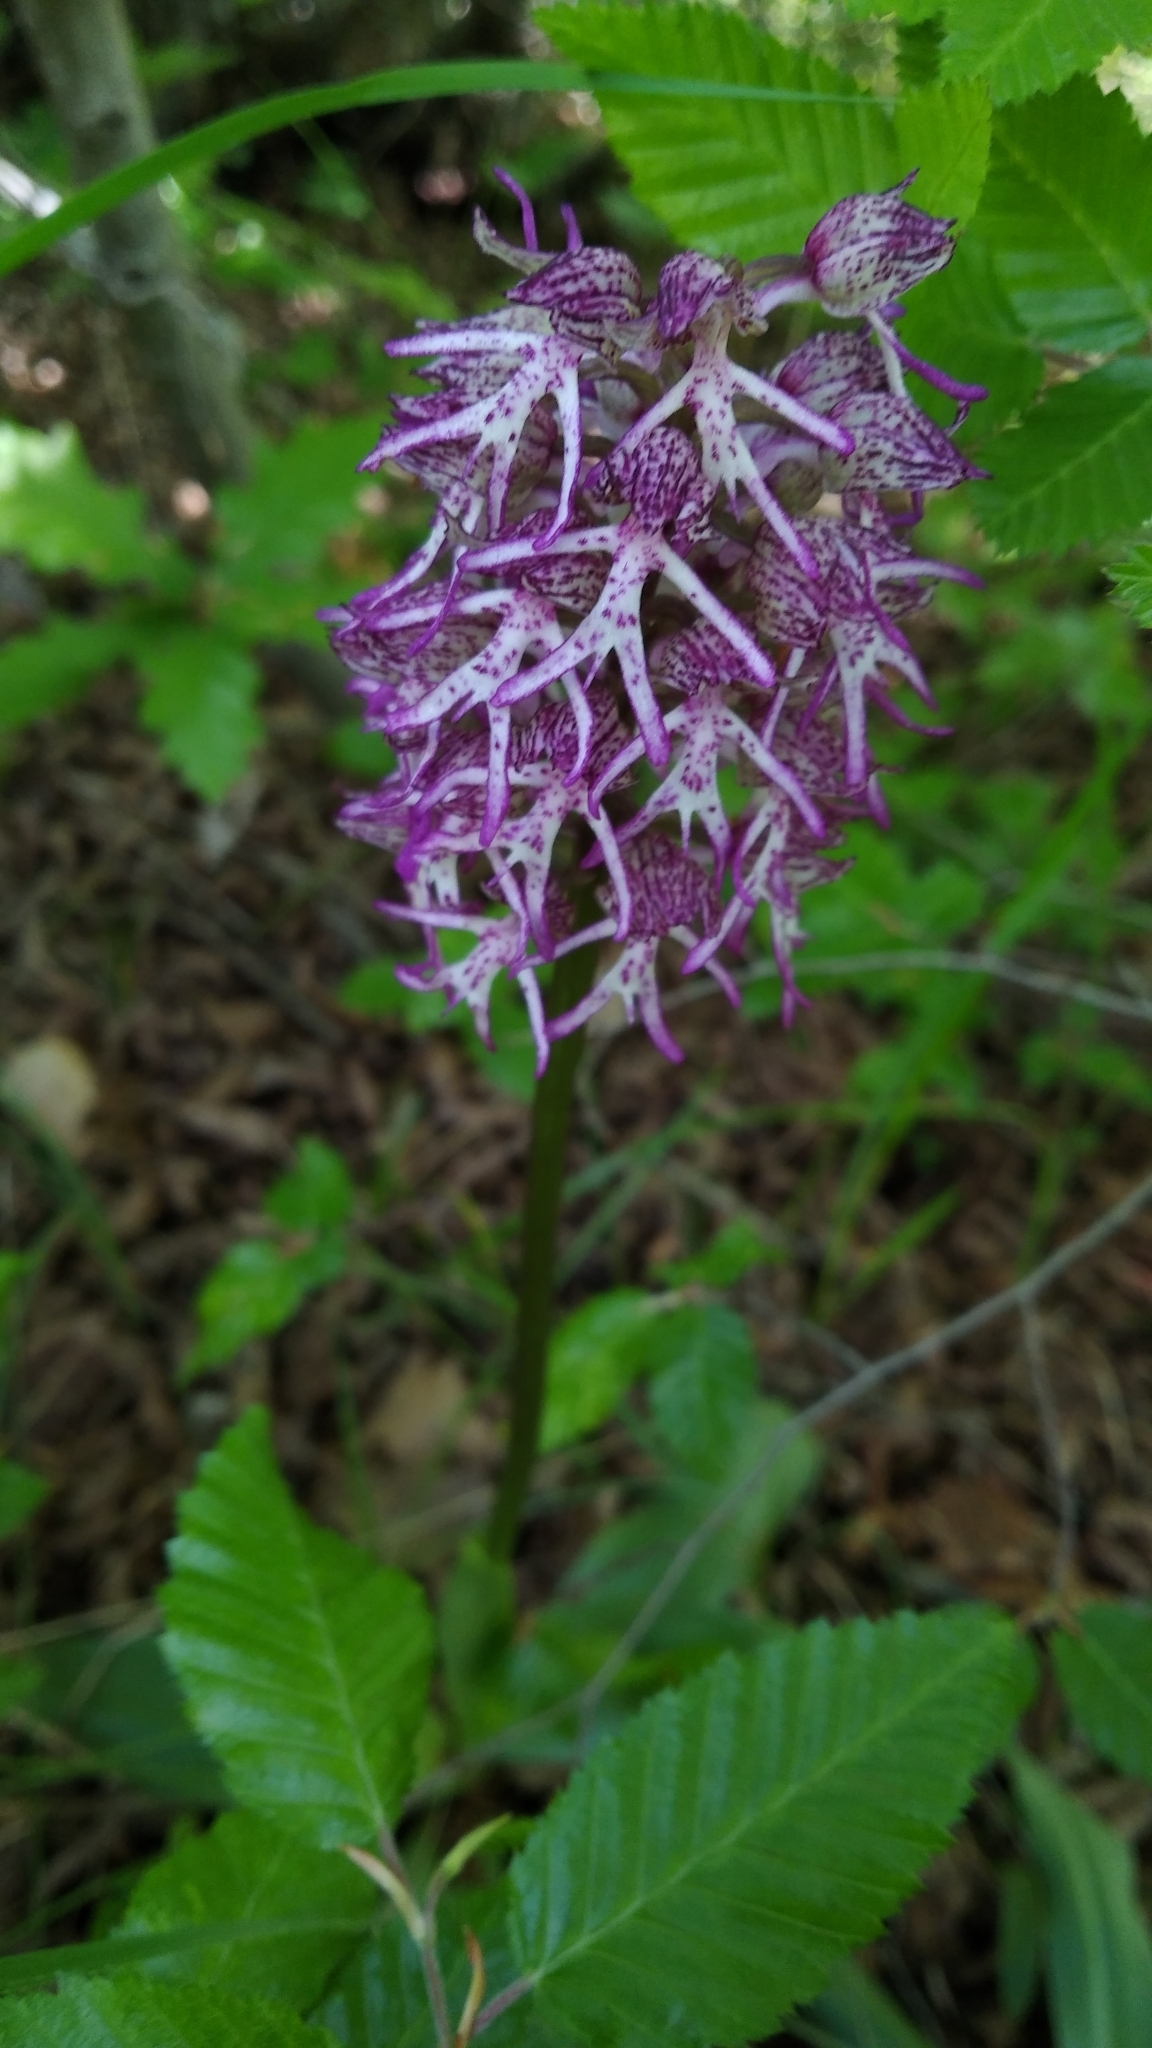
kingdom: Plantae
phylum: Tracheophyta
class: Liliopsida
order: Asparagales
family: Orchidaceae
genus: Orchis
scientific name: Orchis angusticruris
